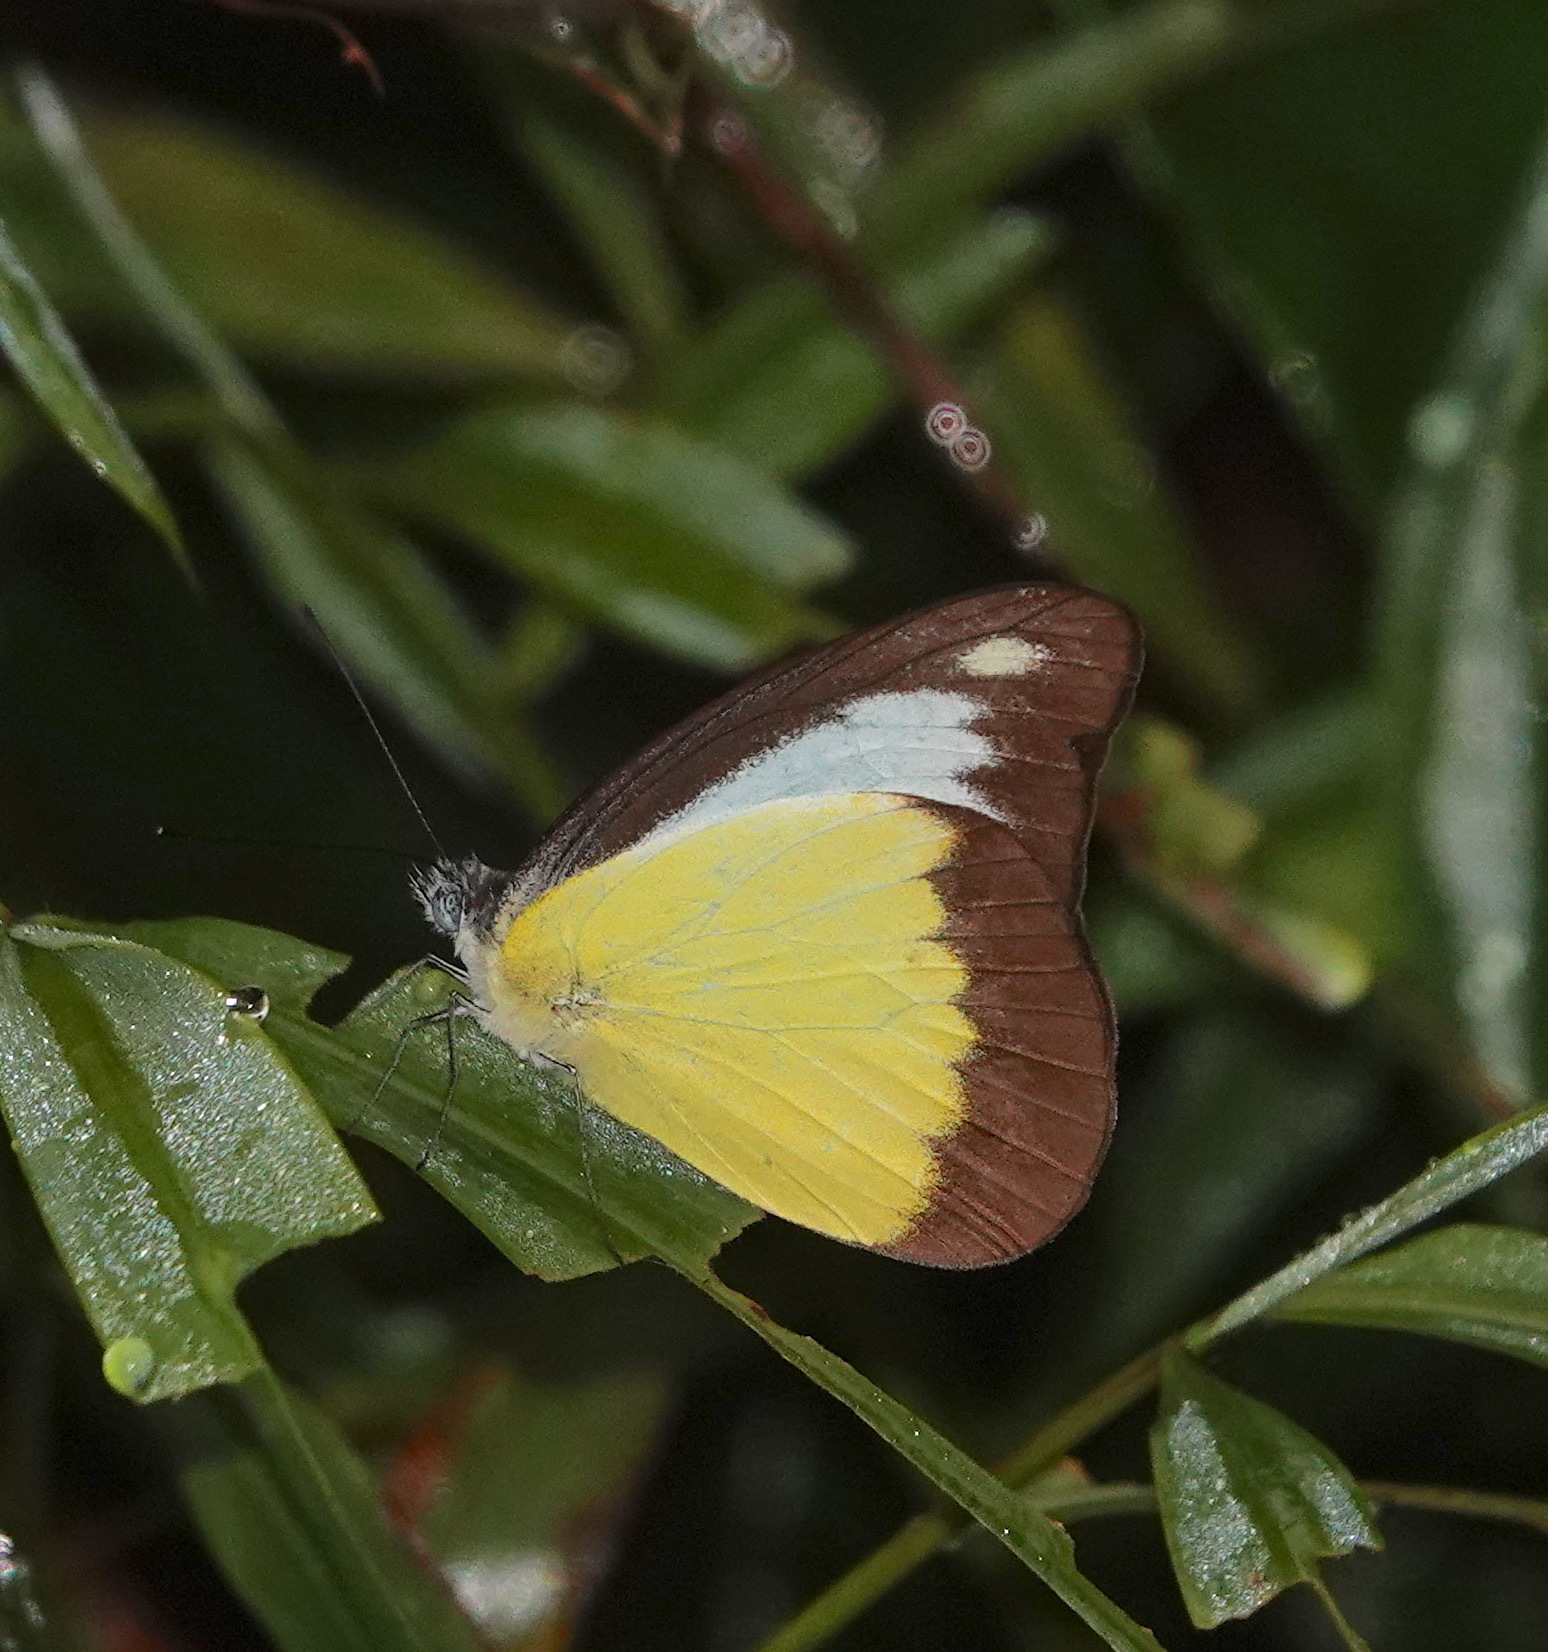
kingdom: Animalia
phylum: Arthropoda
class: Insecta
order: Lepidoptera
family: Pieridae
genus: Appias
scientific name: Appias lyncida
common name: Chocolate albatross
